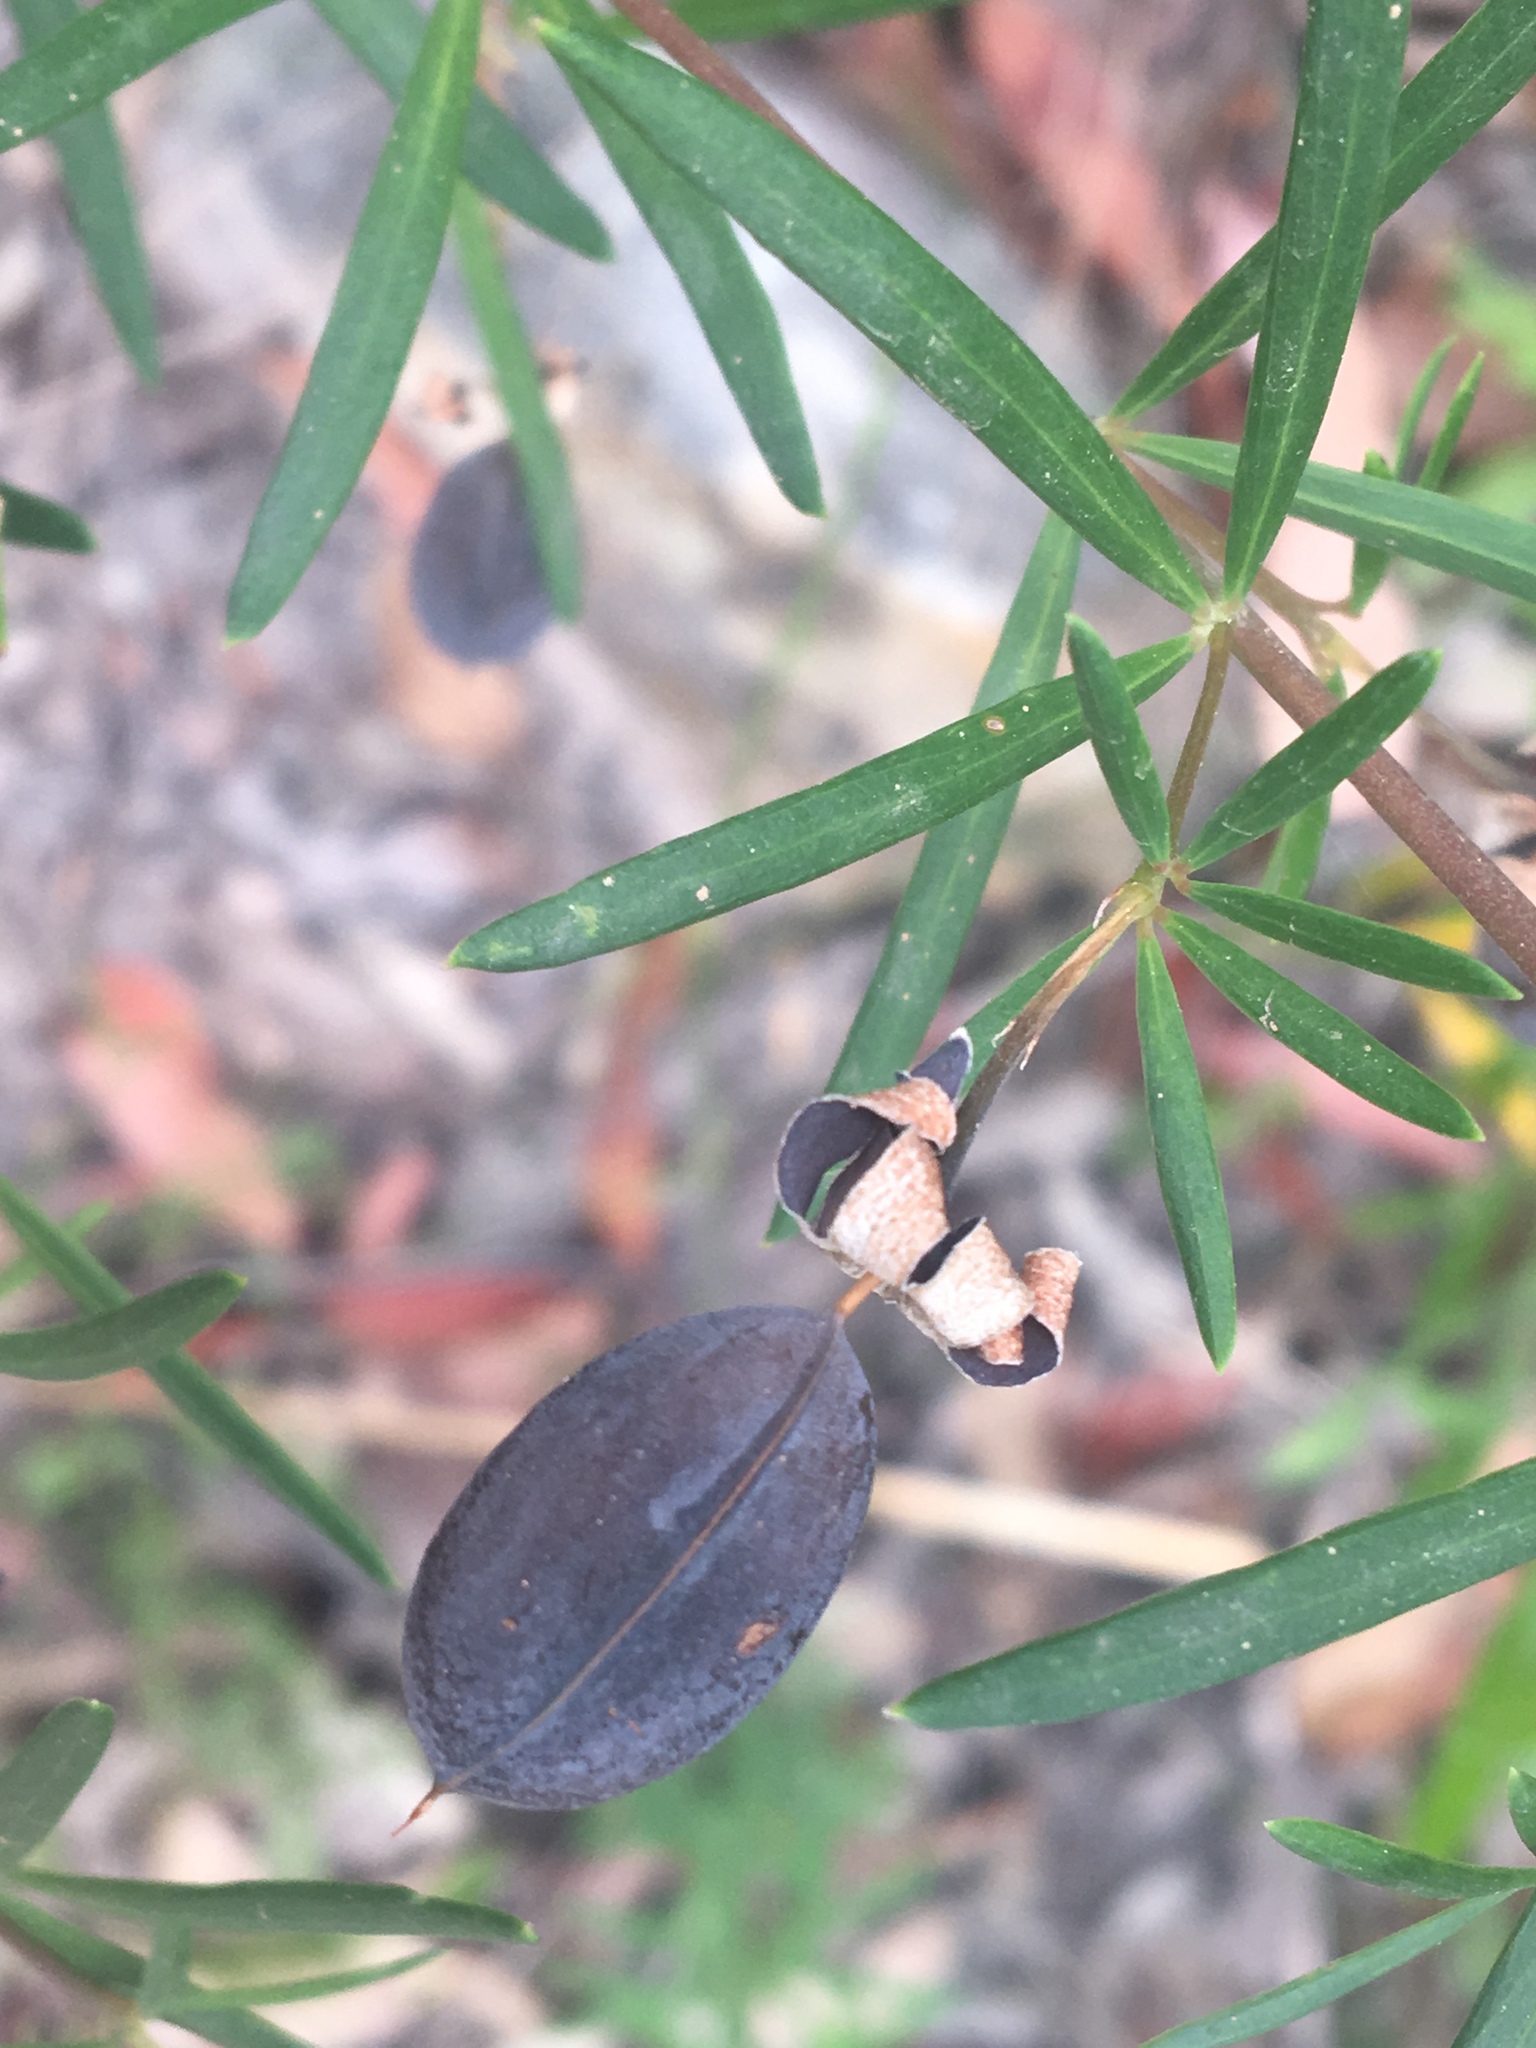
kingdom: Plantae
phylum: Tracheophyta
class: Magnoliopsida
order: Fabales
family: Fabaceae
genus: Gompholobium
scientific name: Gompholobium latifolium
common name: Broadleaf wedge-pea
